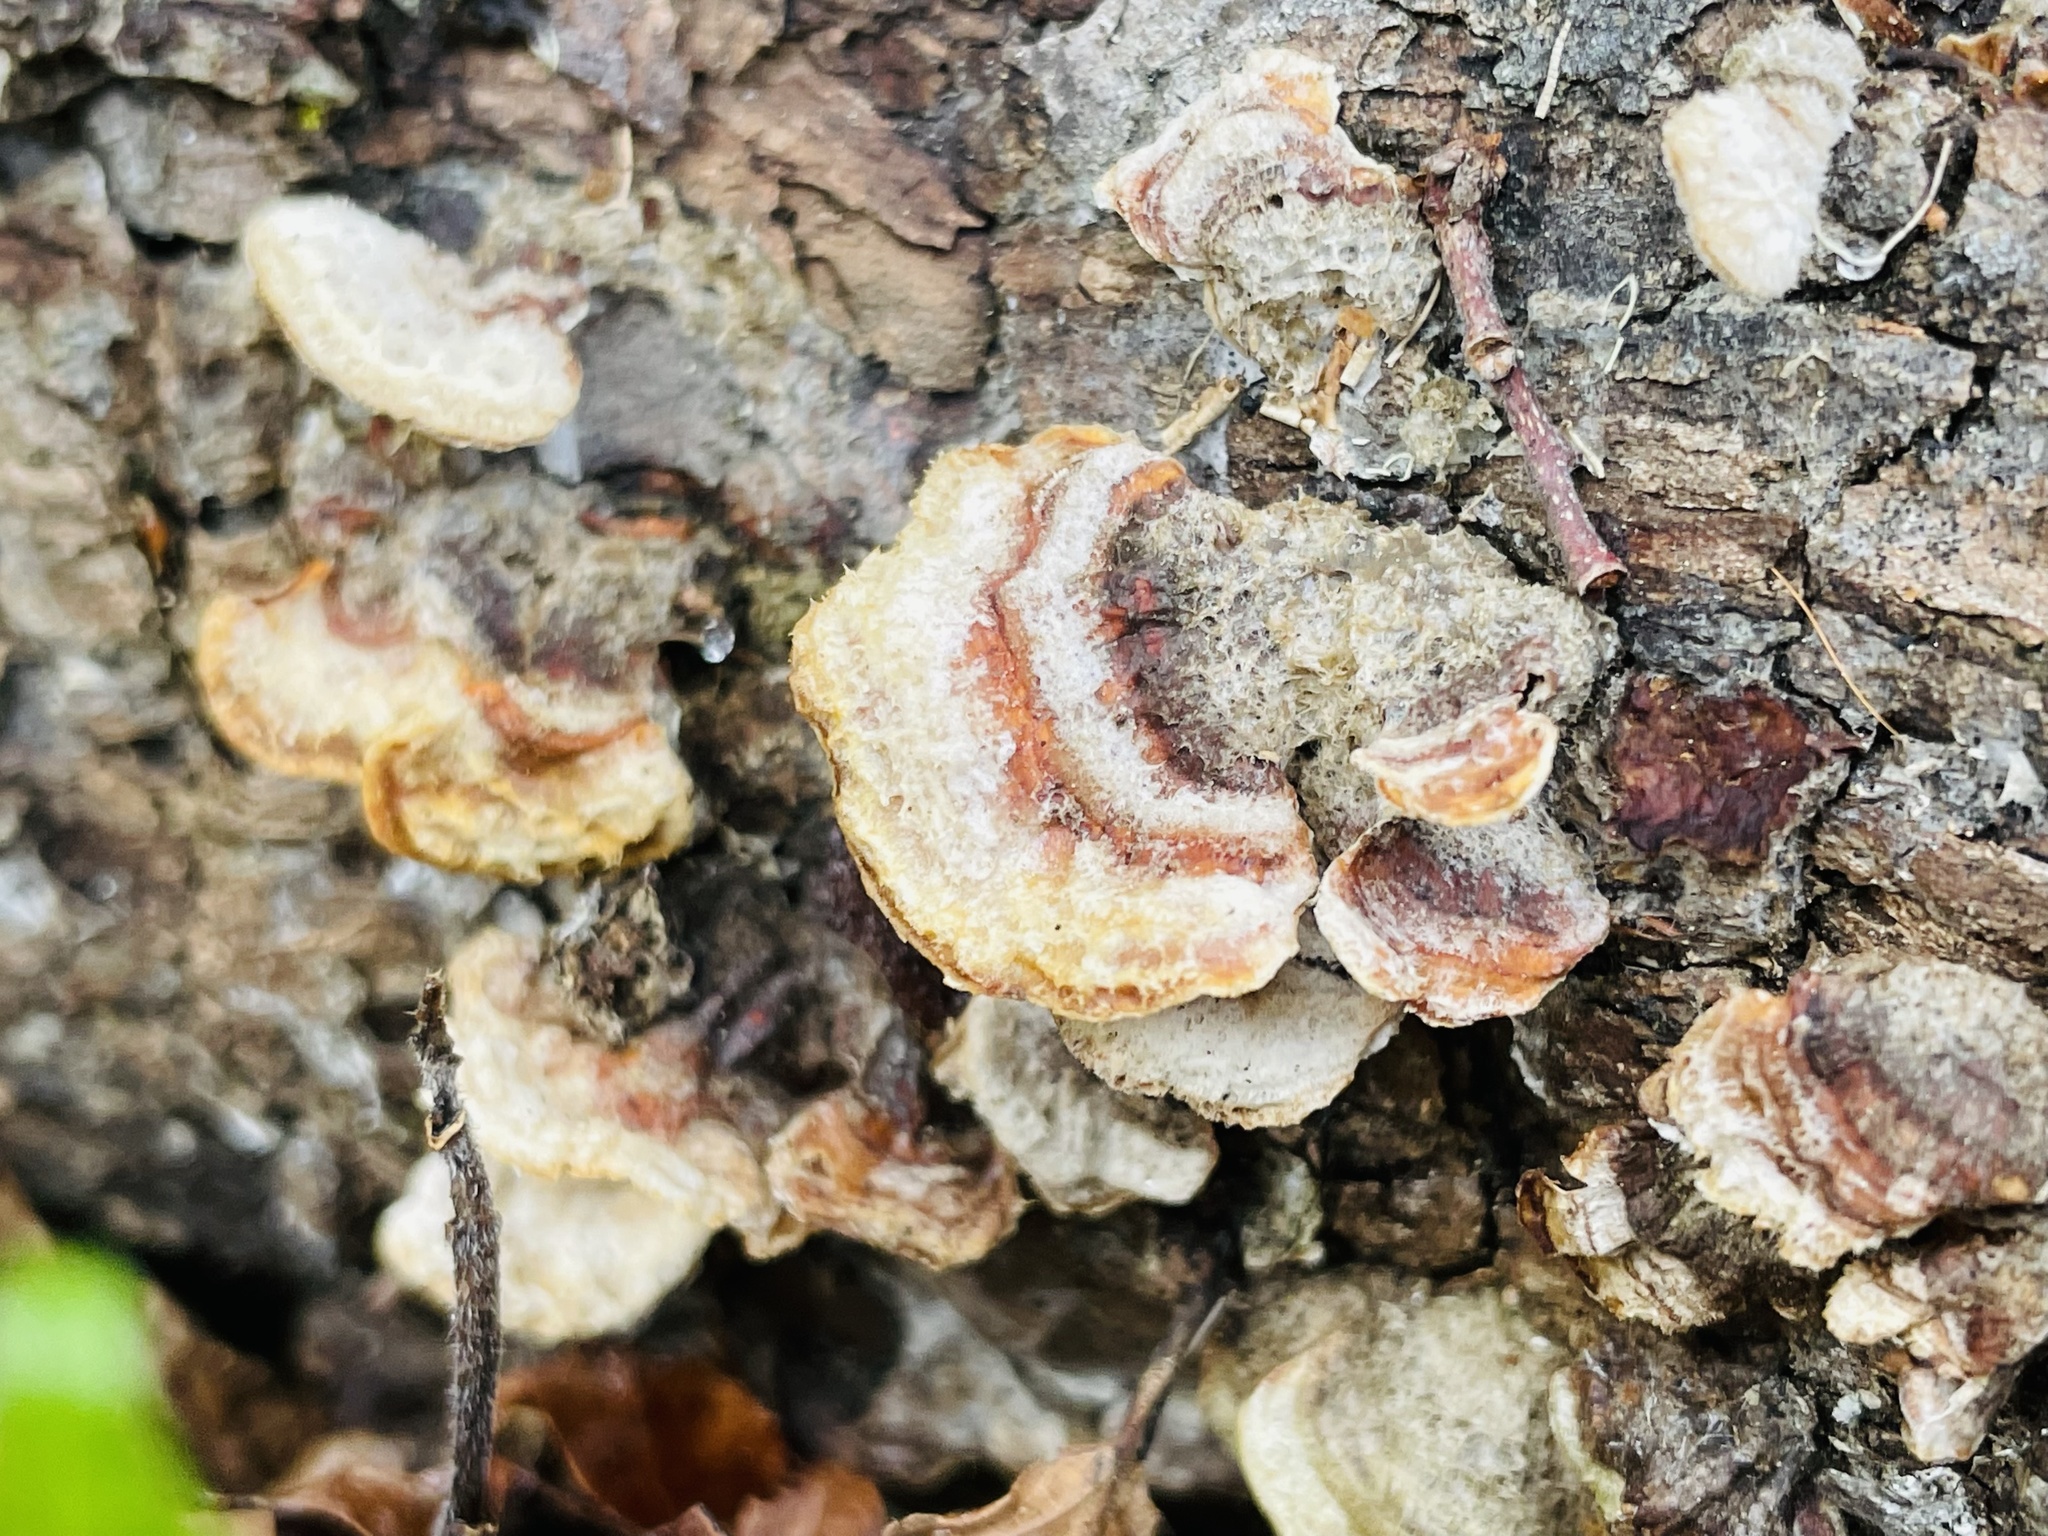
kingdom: Fungi
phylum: Basidiomycota
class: Agaricomycetes
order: Russulales
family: Stereaceae
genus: Stereum
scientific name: Stereum hirsutum
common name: Hairy curtain crust
